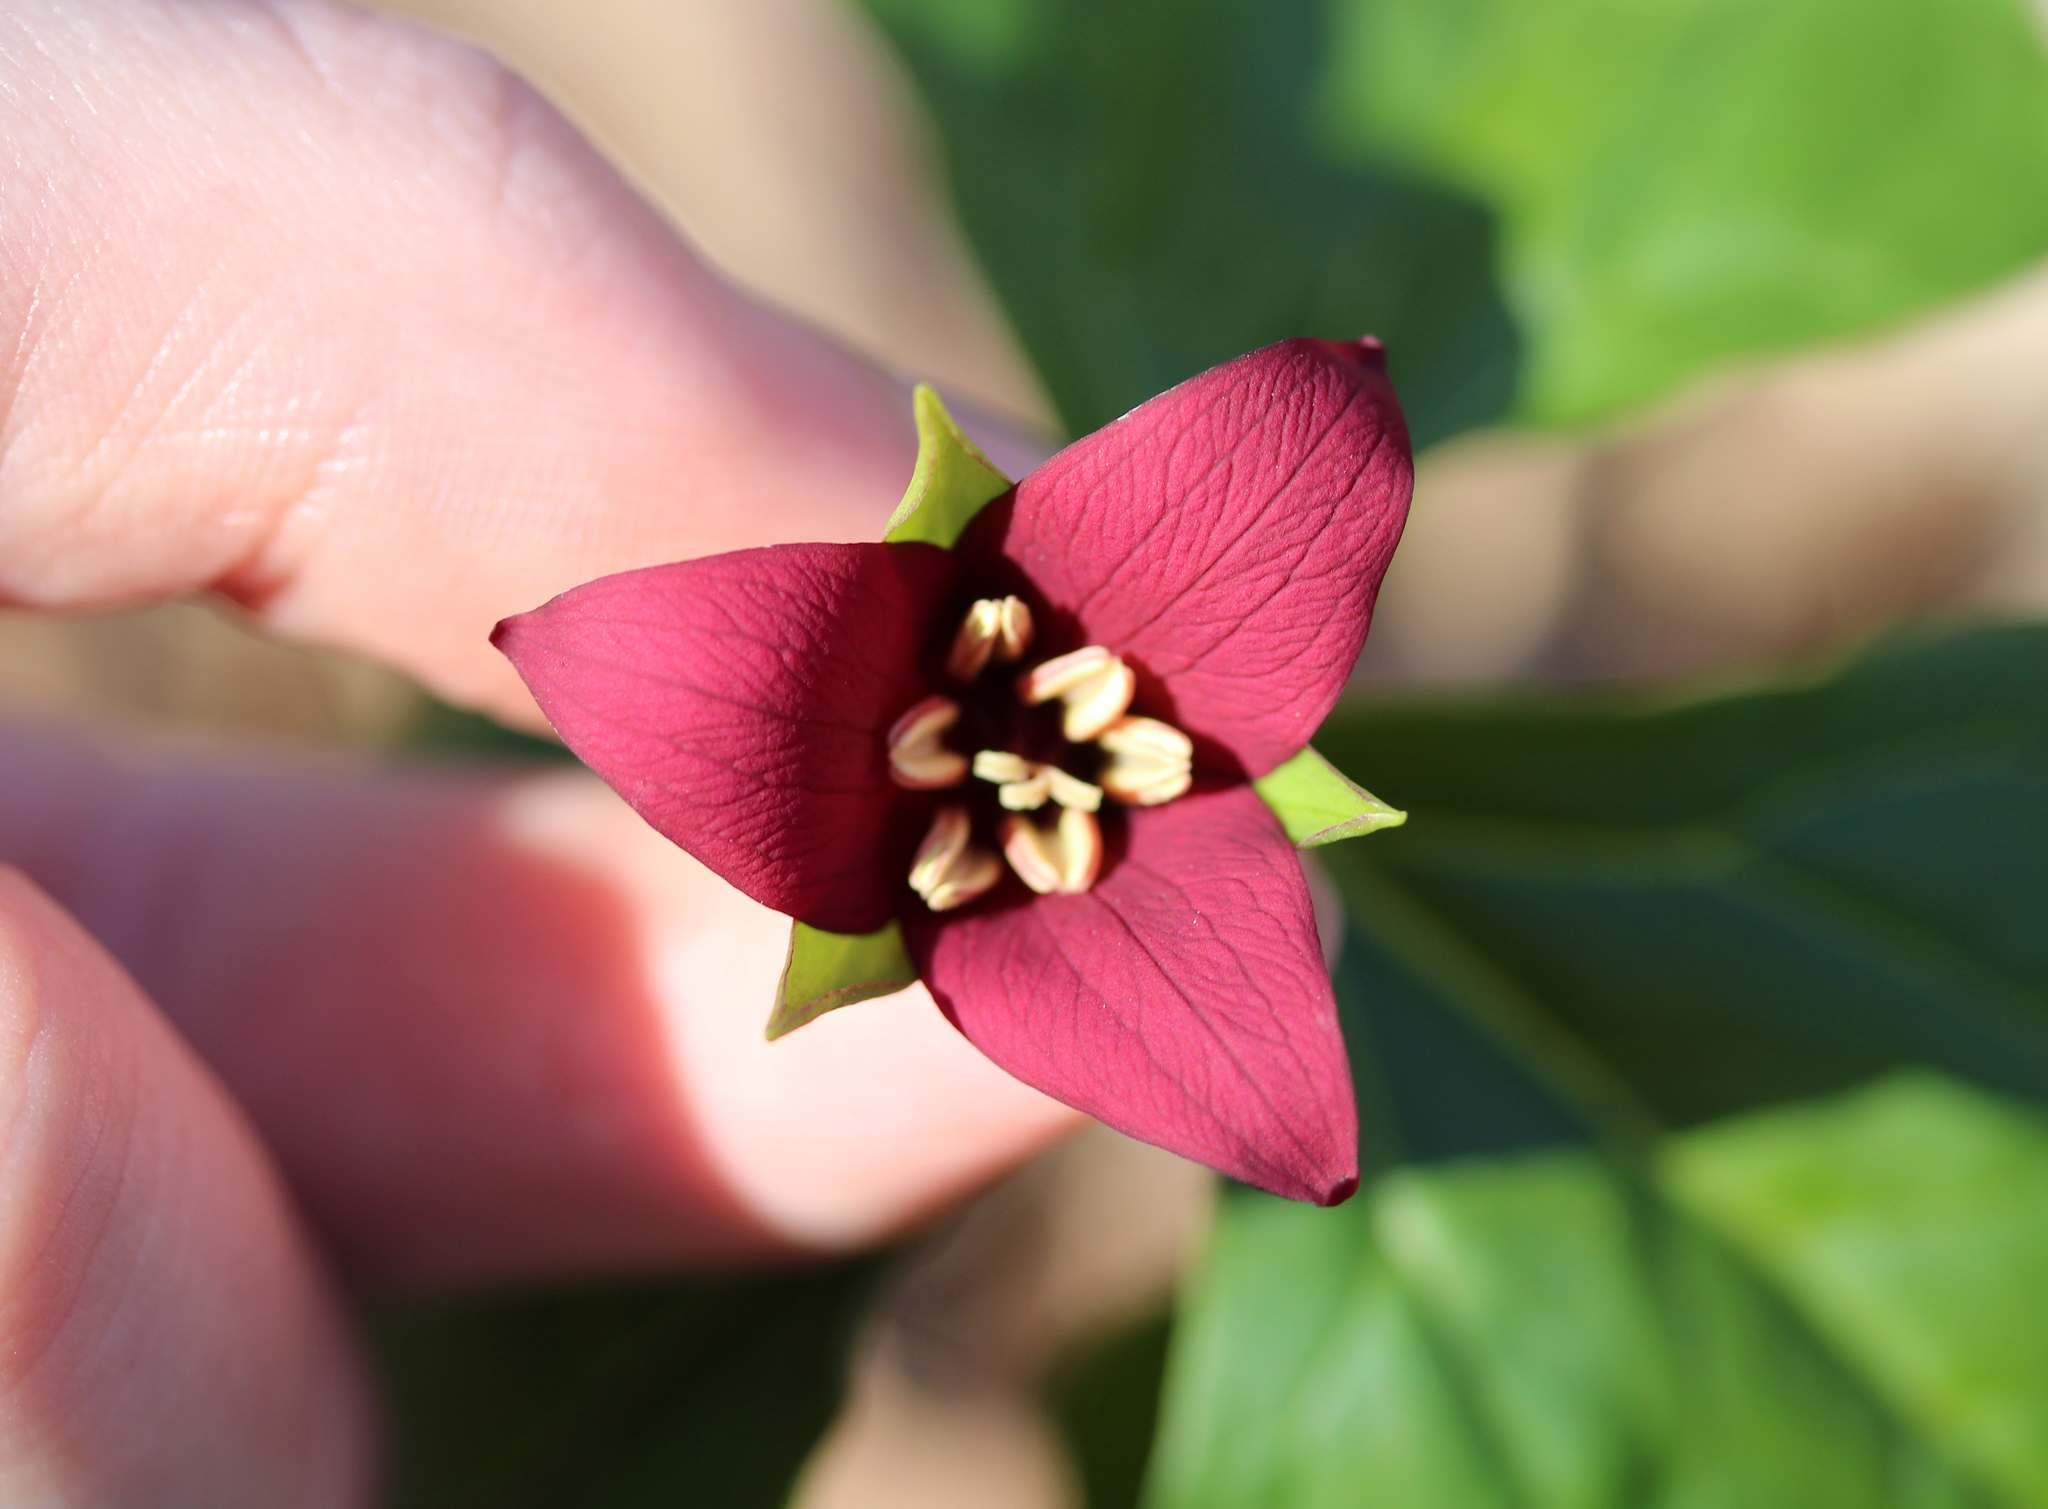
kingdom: Plantae
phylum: Tracheophyta
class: Liliopsida
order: Liliales
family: Melanthiaceae
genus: Trillium
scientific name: Trillium erectum
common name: Purple trillium
